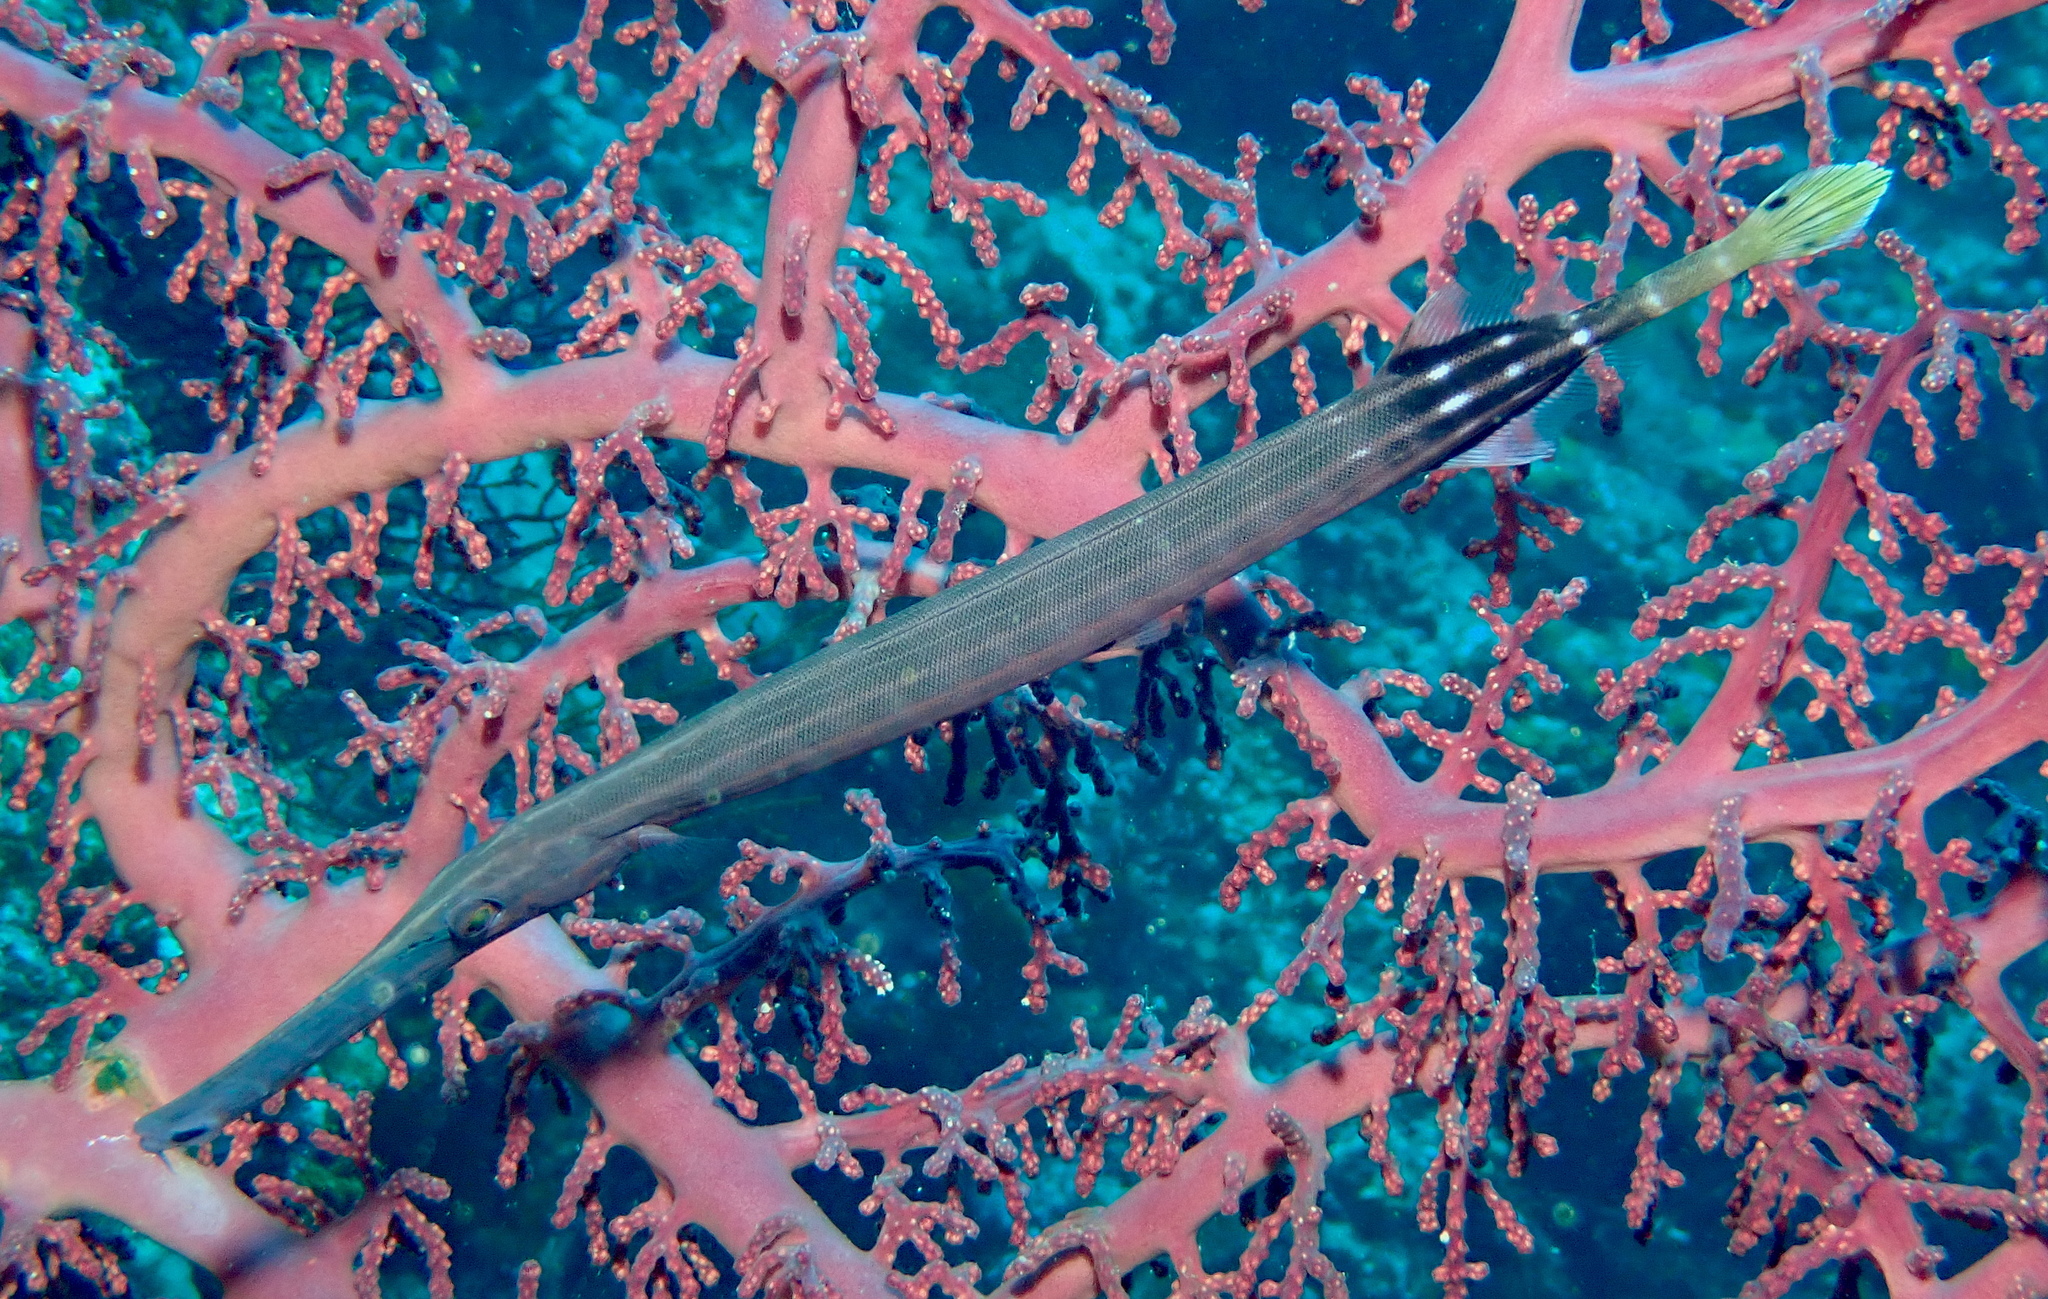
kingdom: Animalia
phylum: Chordata
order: Syngnathiformes
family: Aulostomidae
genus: Aulostomus
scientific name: Aulostomus chinensis
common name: Chinese trumpetfish
